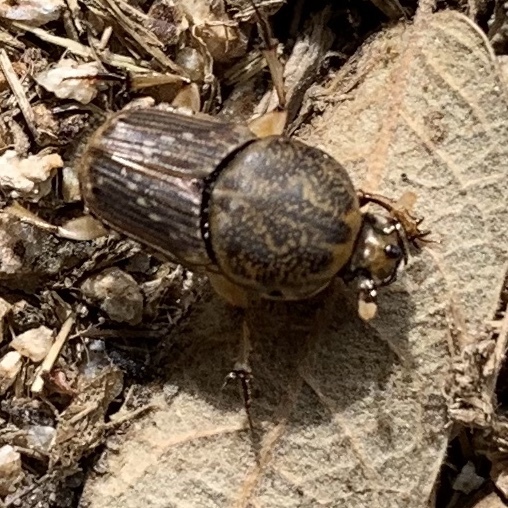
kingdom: Animalia
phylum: Arthropoda
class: Insecta
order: Coleoptera
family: Scarabaeidae
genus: Euoniticellus
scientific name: Euoniticellus intermedius
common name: Intermediate sandy dung beetle
